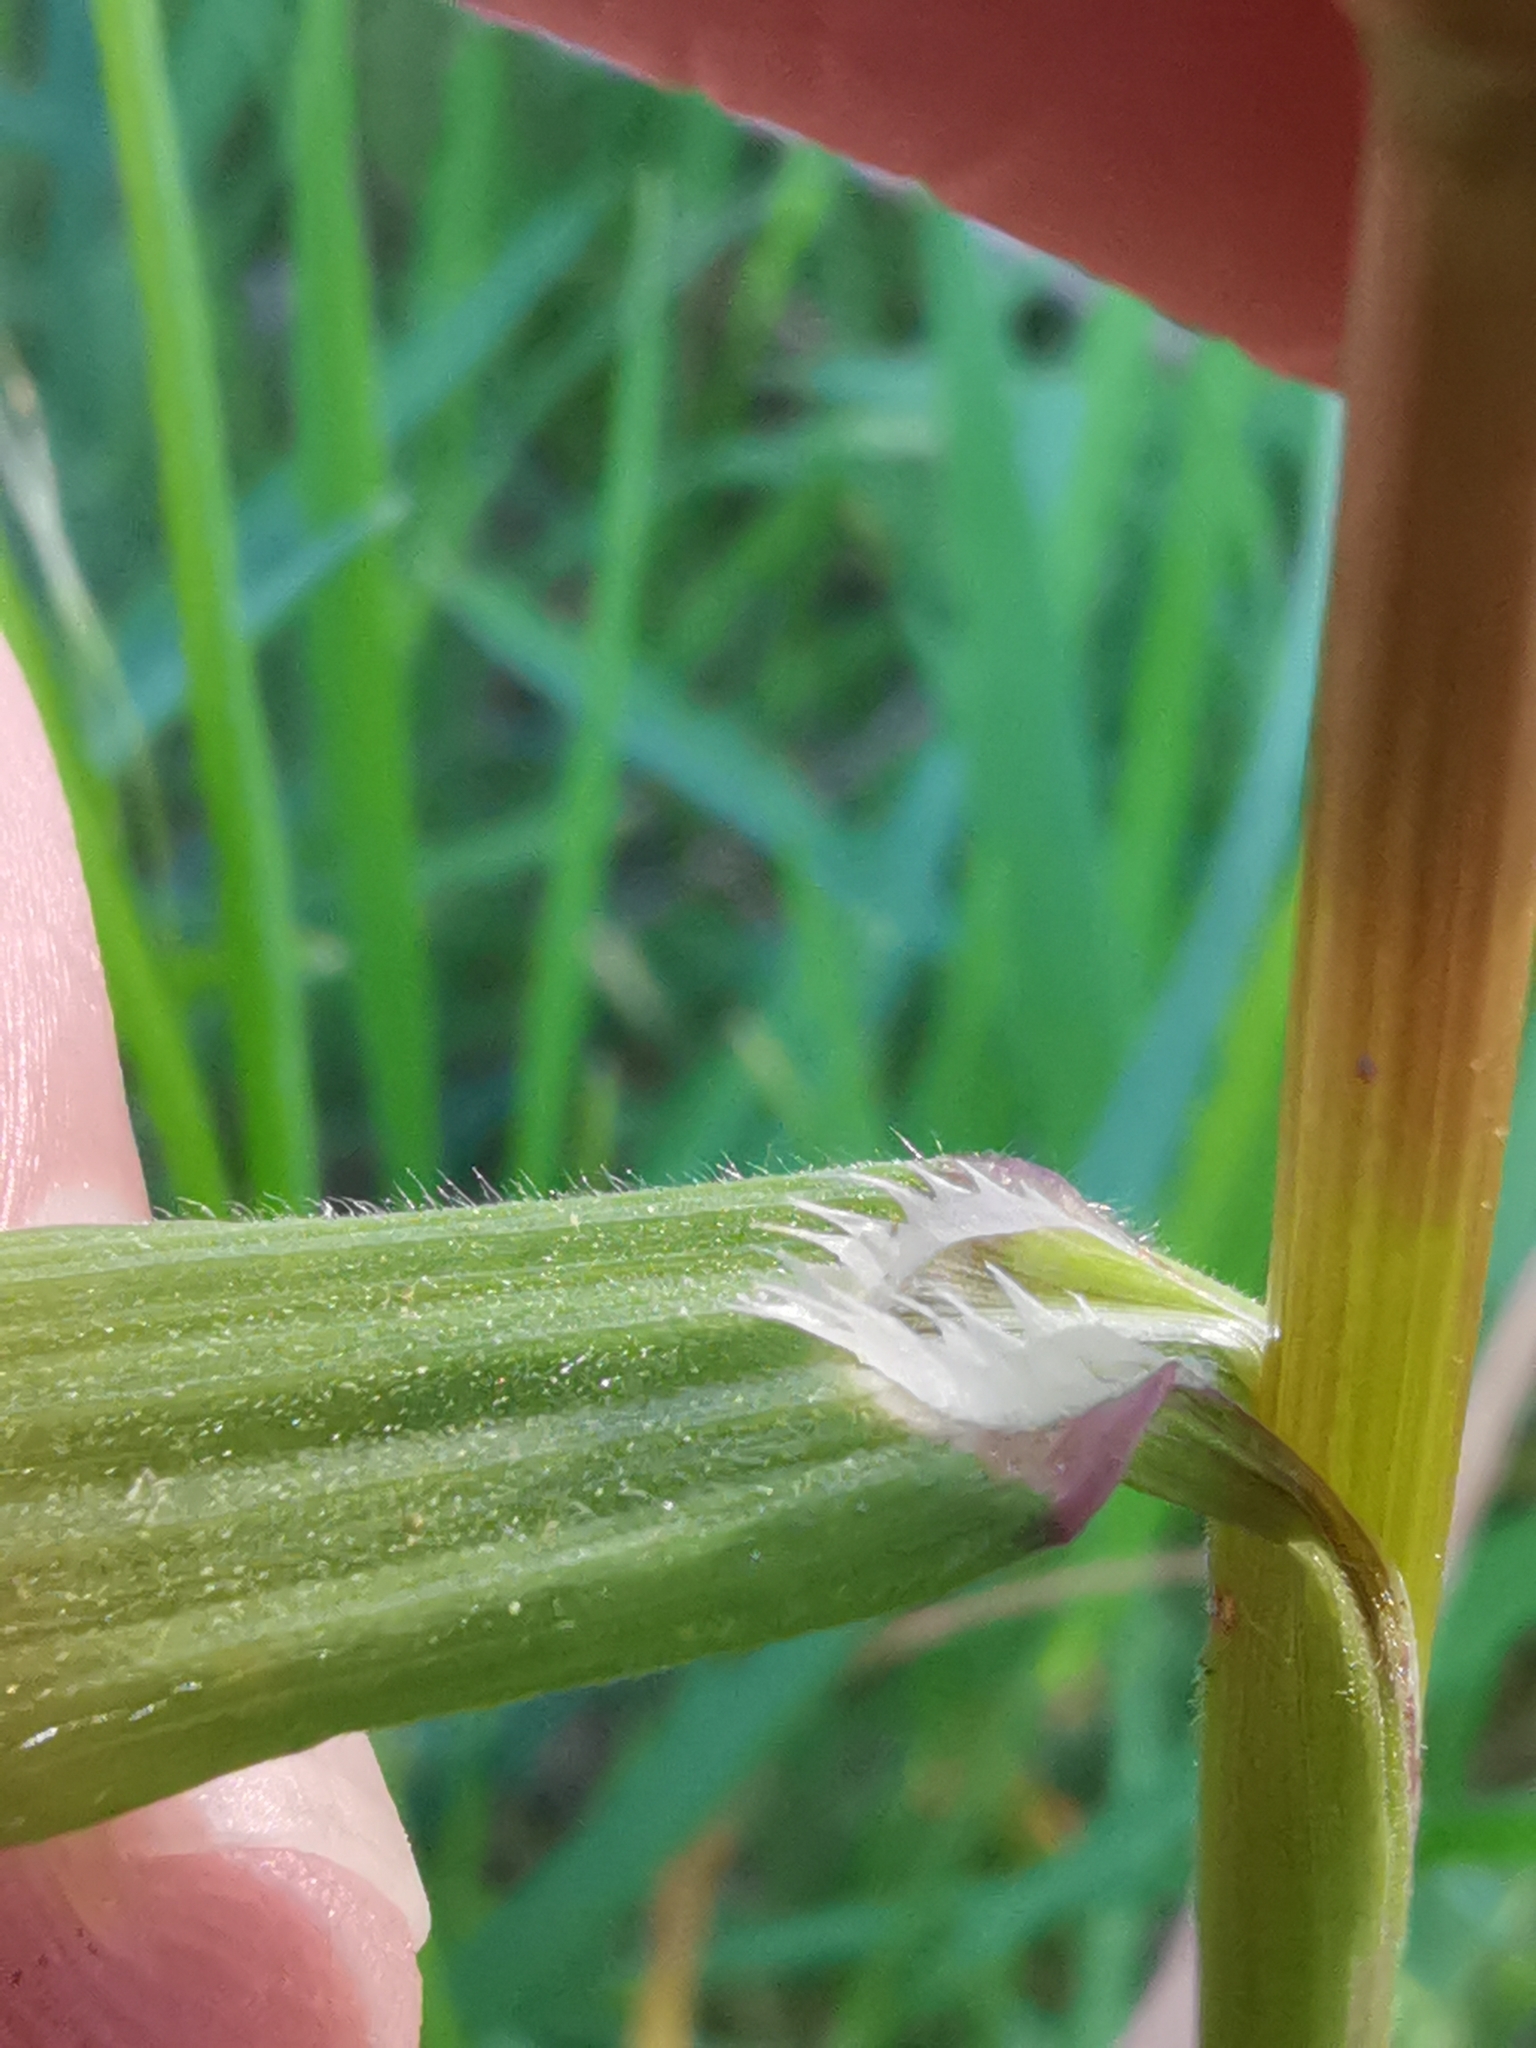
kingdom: Plantae
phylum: Tracheophyta
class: Liliopsida
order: Poales
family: Poaceae
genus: Bromus
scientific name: Bromus sterilis
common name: Poverty brome
